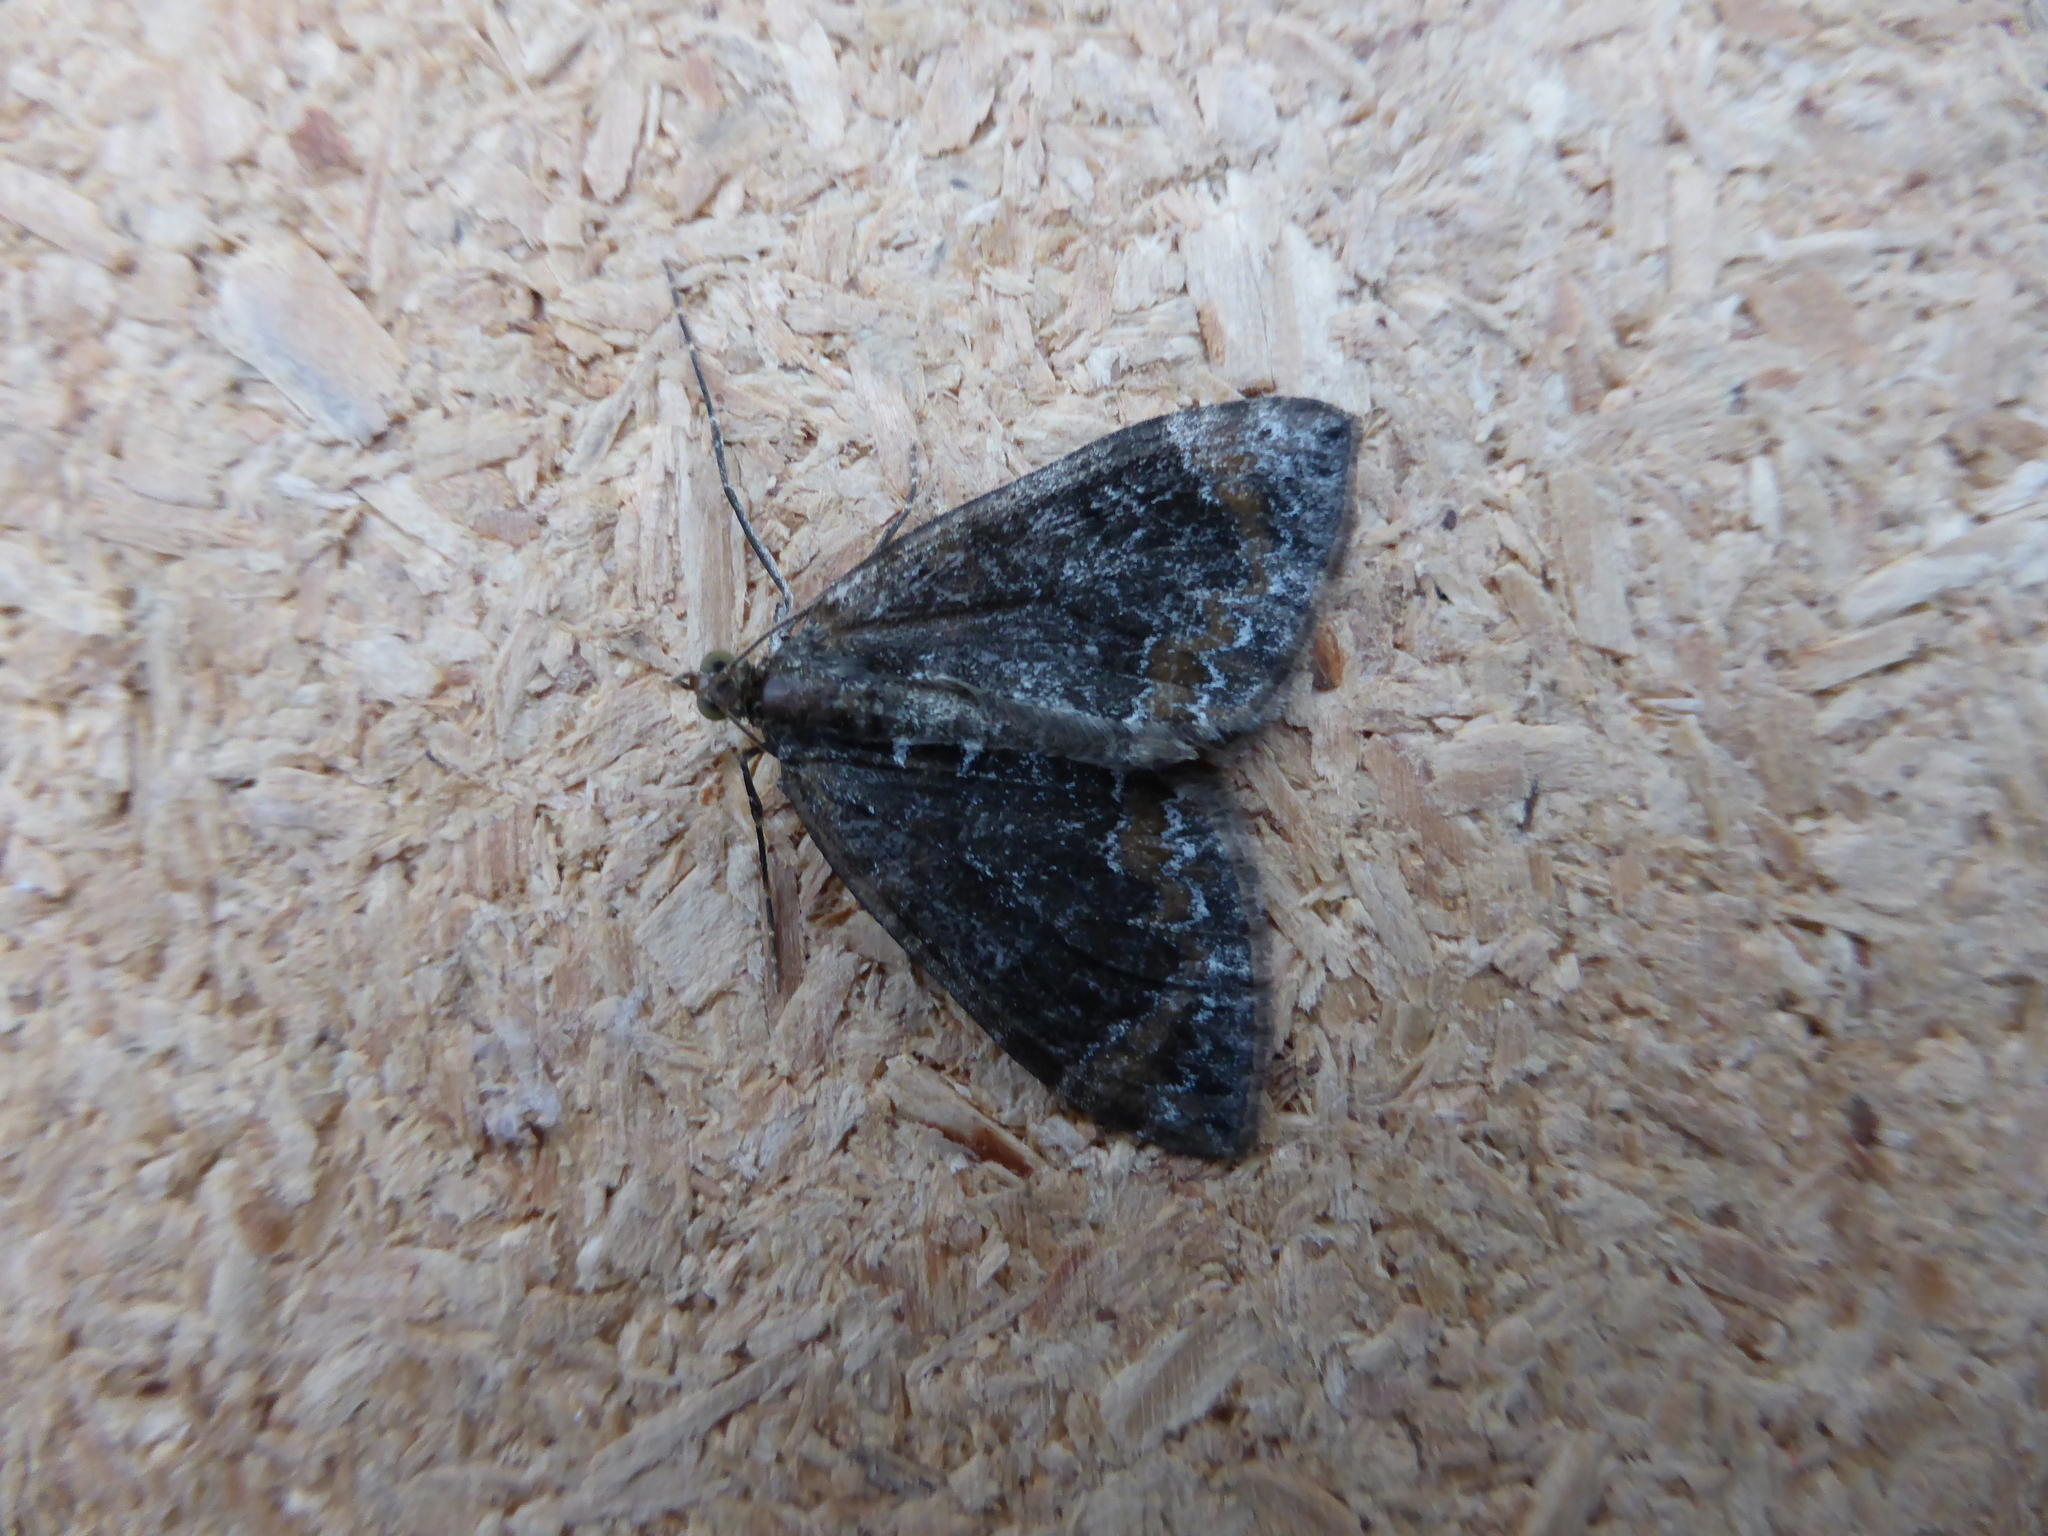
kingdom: Animalia
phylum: Arthropoda
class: Insecta
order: Lepidoptera
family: Geometridae
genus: Dysstroma
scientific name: Dysstroma truncata
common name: Common marbled carpet
